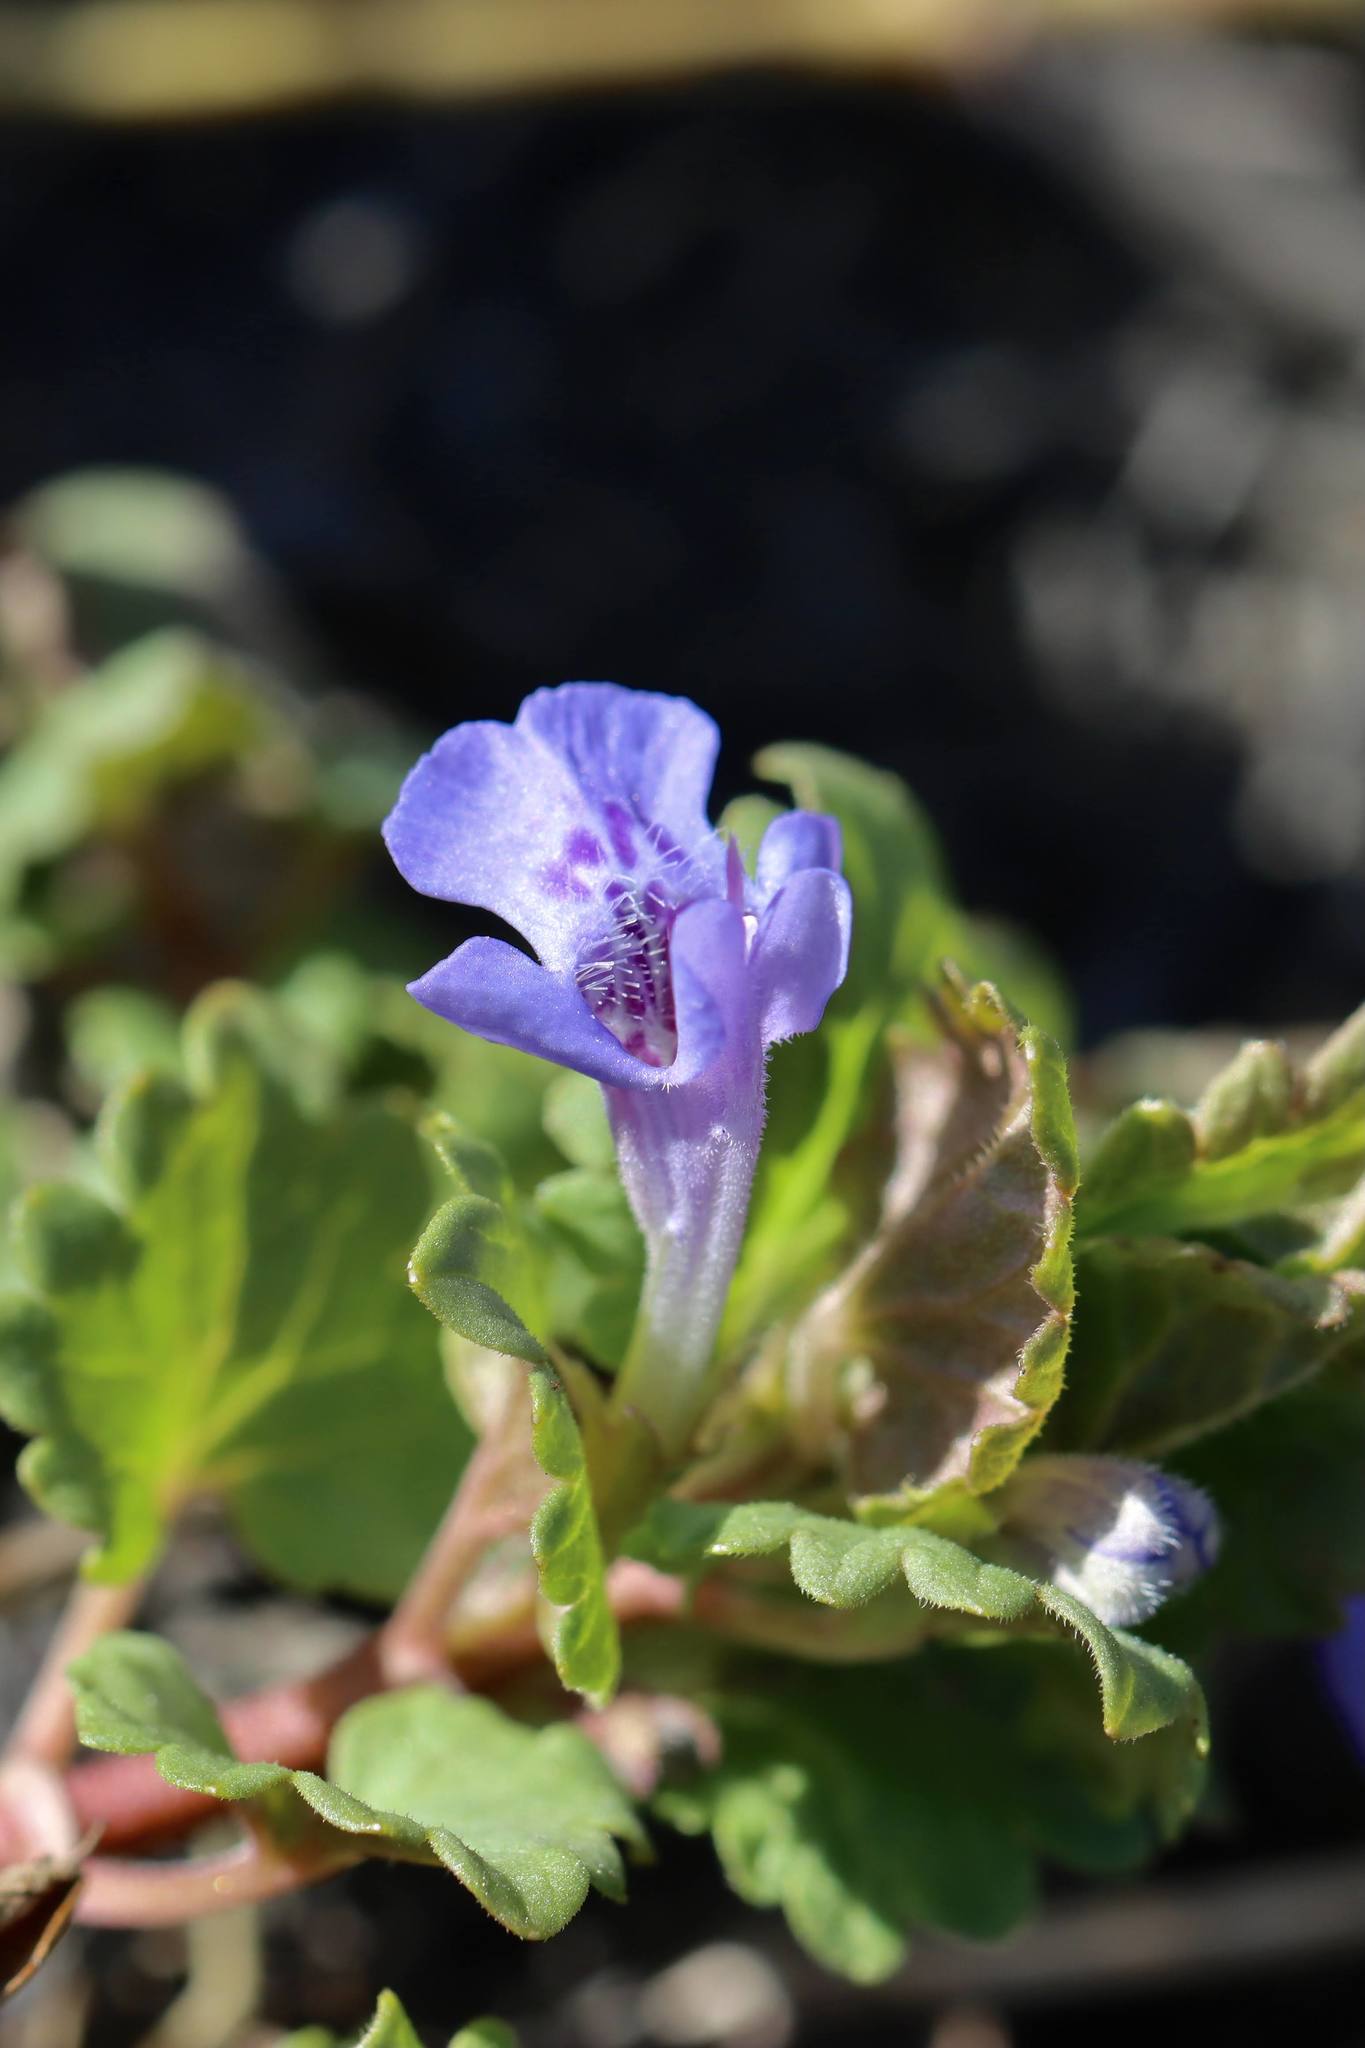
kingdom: Plantae
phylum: Tracheophyta
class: Magnoliopsida
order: Lamiales
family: Lamiaceae
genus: Glechoma
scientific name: Glechoma hederacea
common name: Ground ivy
